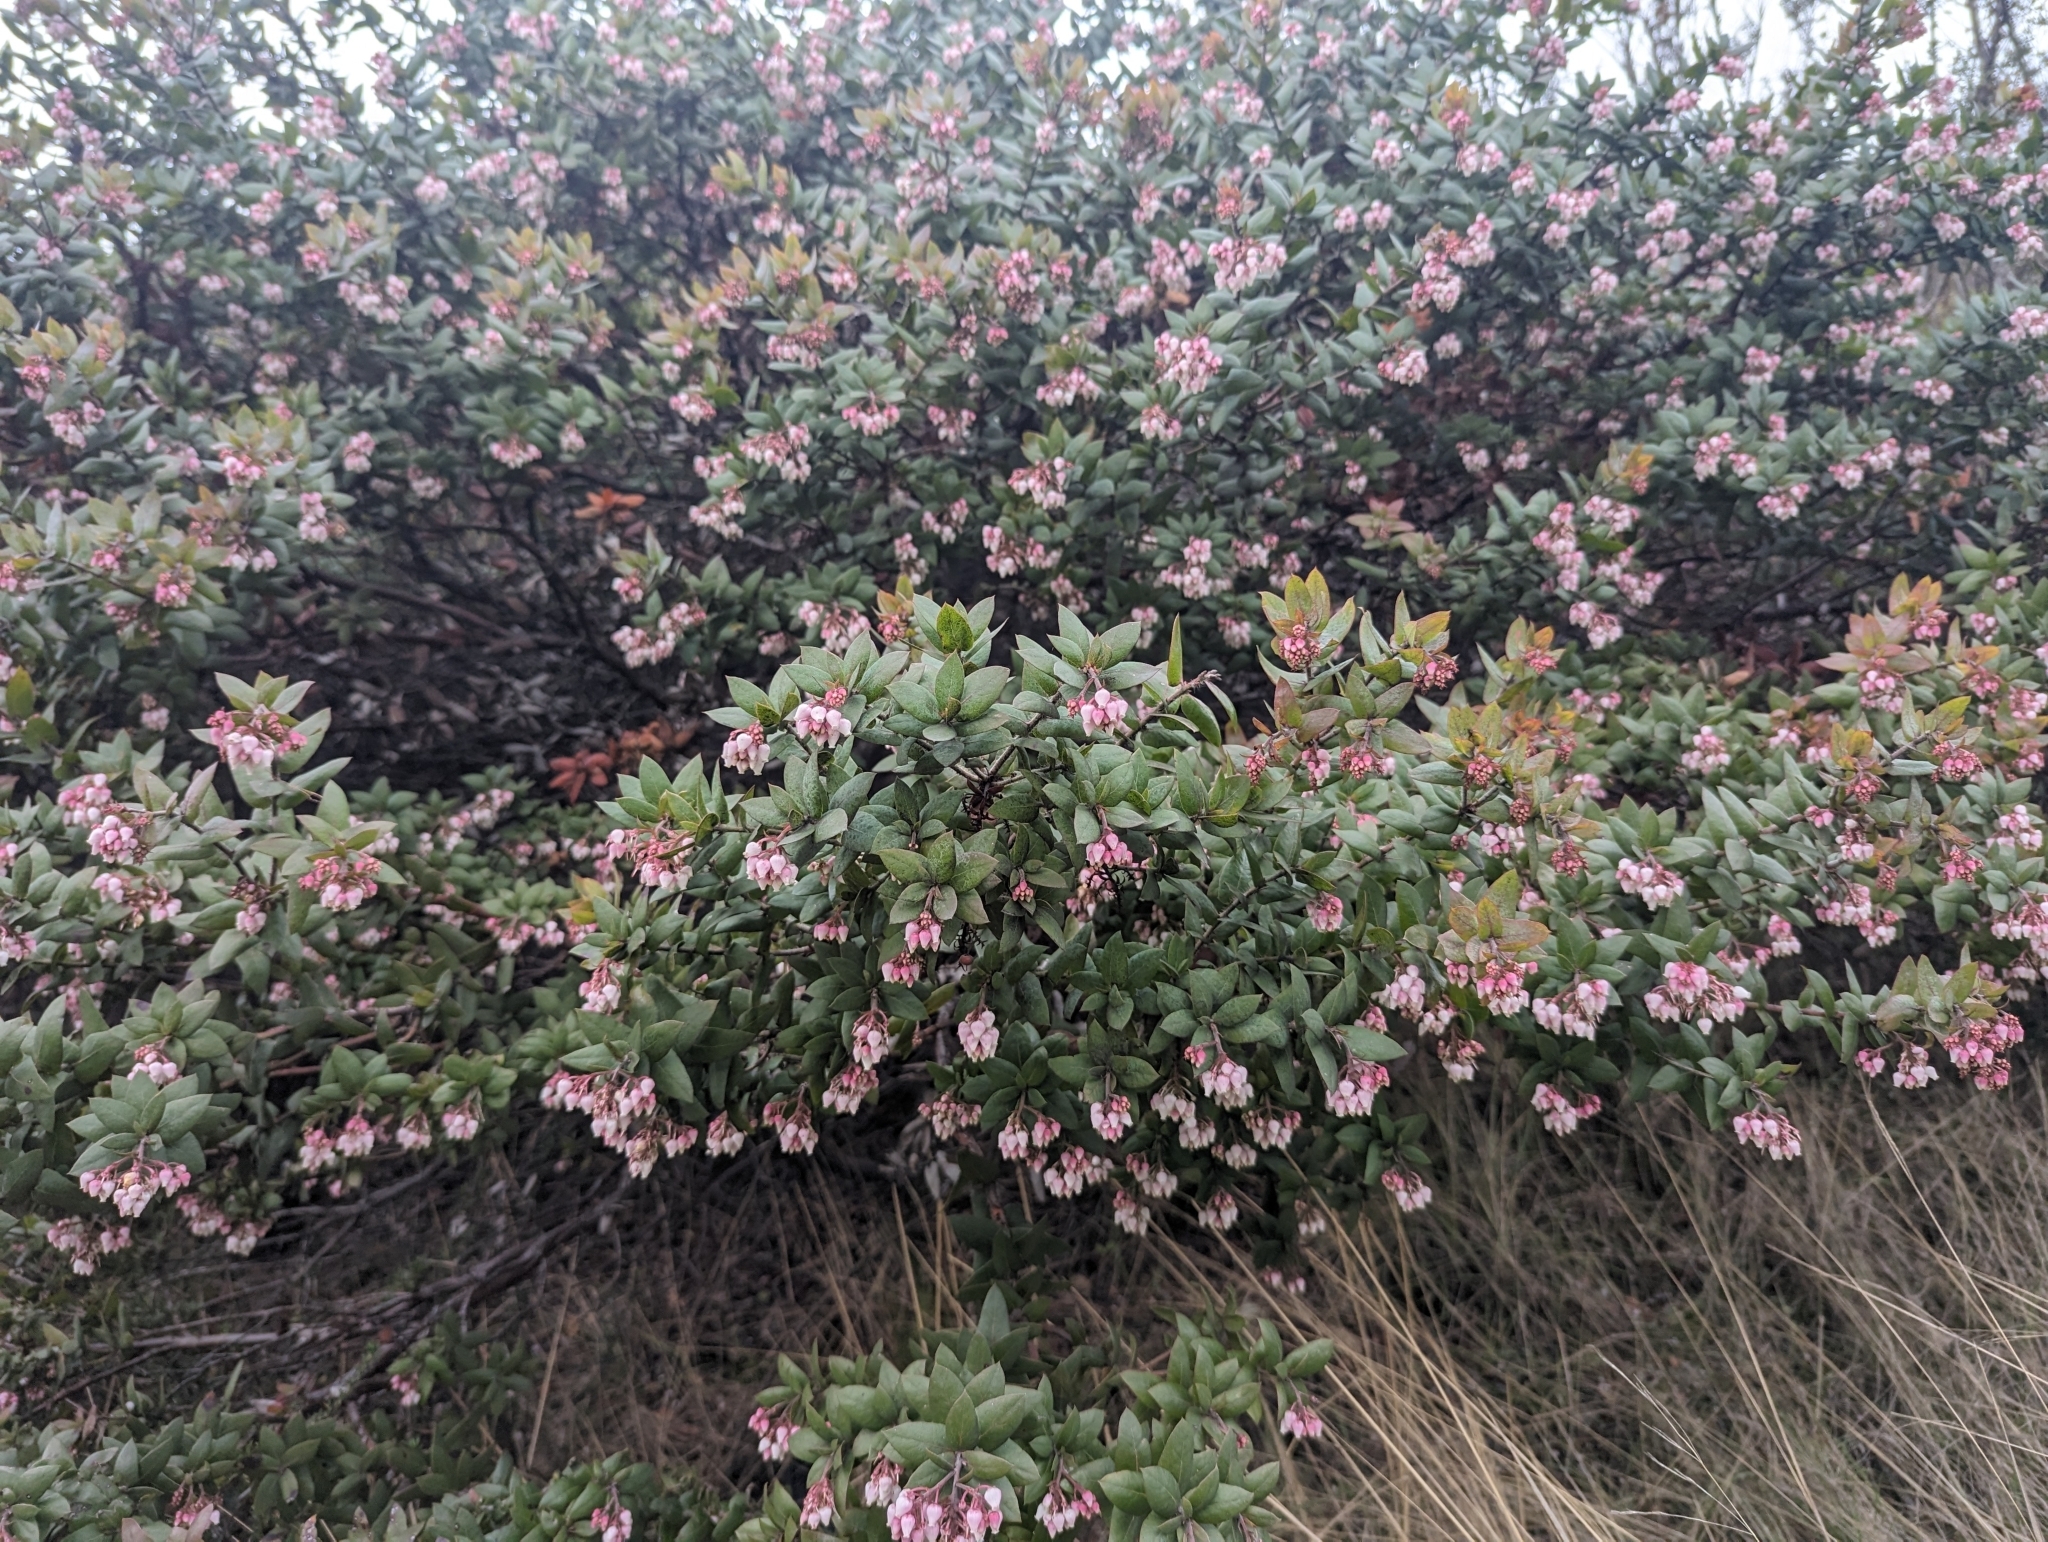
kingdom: Plantae
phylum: Tracheophyta
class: Magnoliopsida
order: Ericales
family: Ericaceae
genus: Arctostaphylos
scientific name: Arctostaphylos pajaroensis
